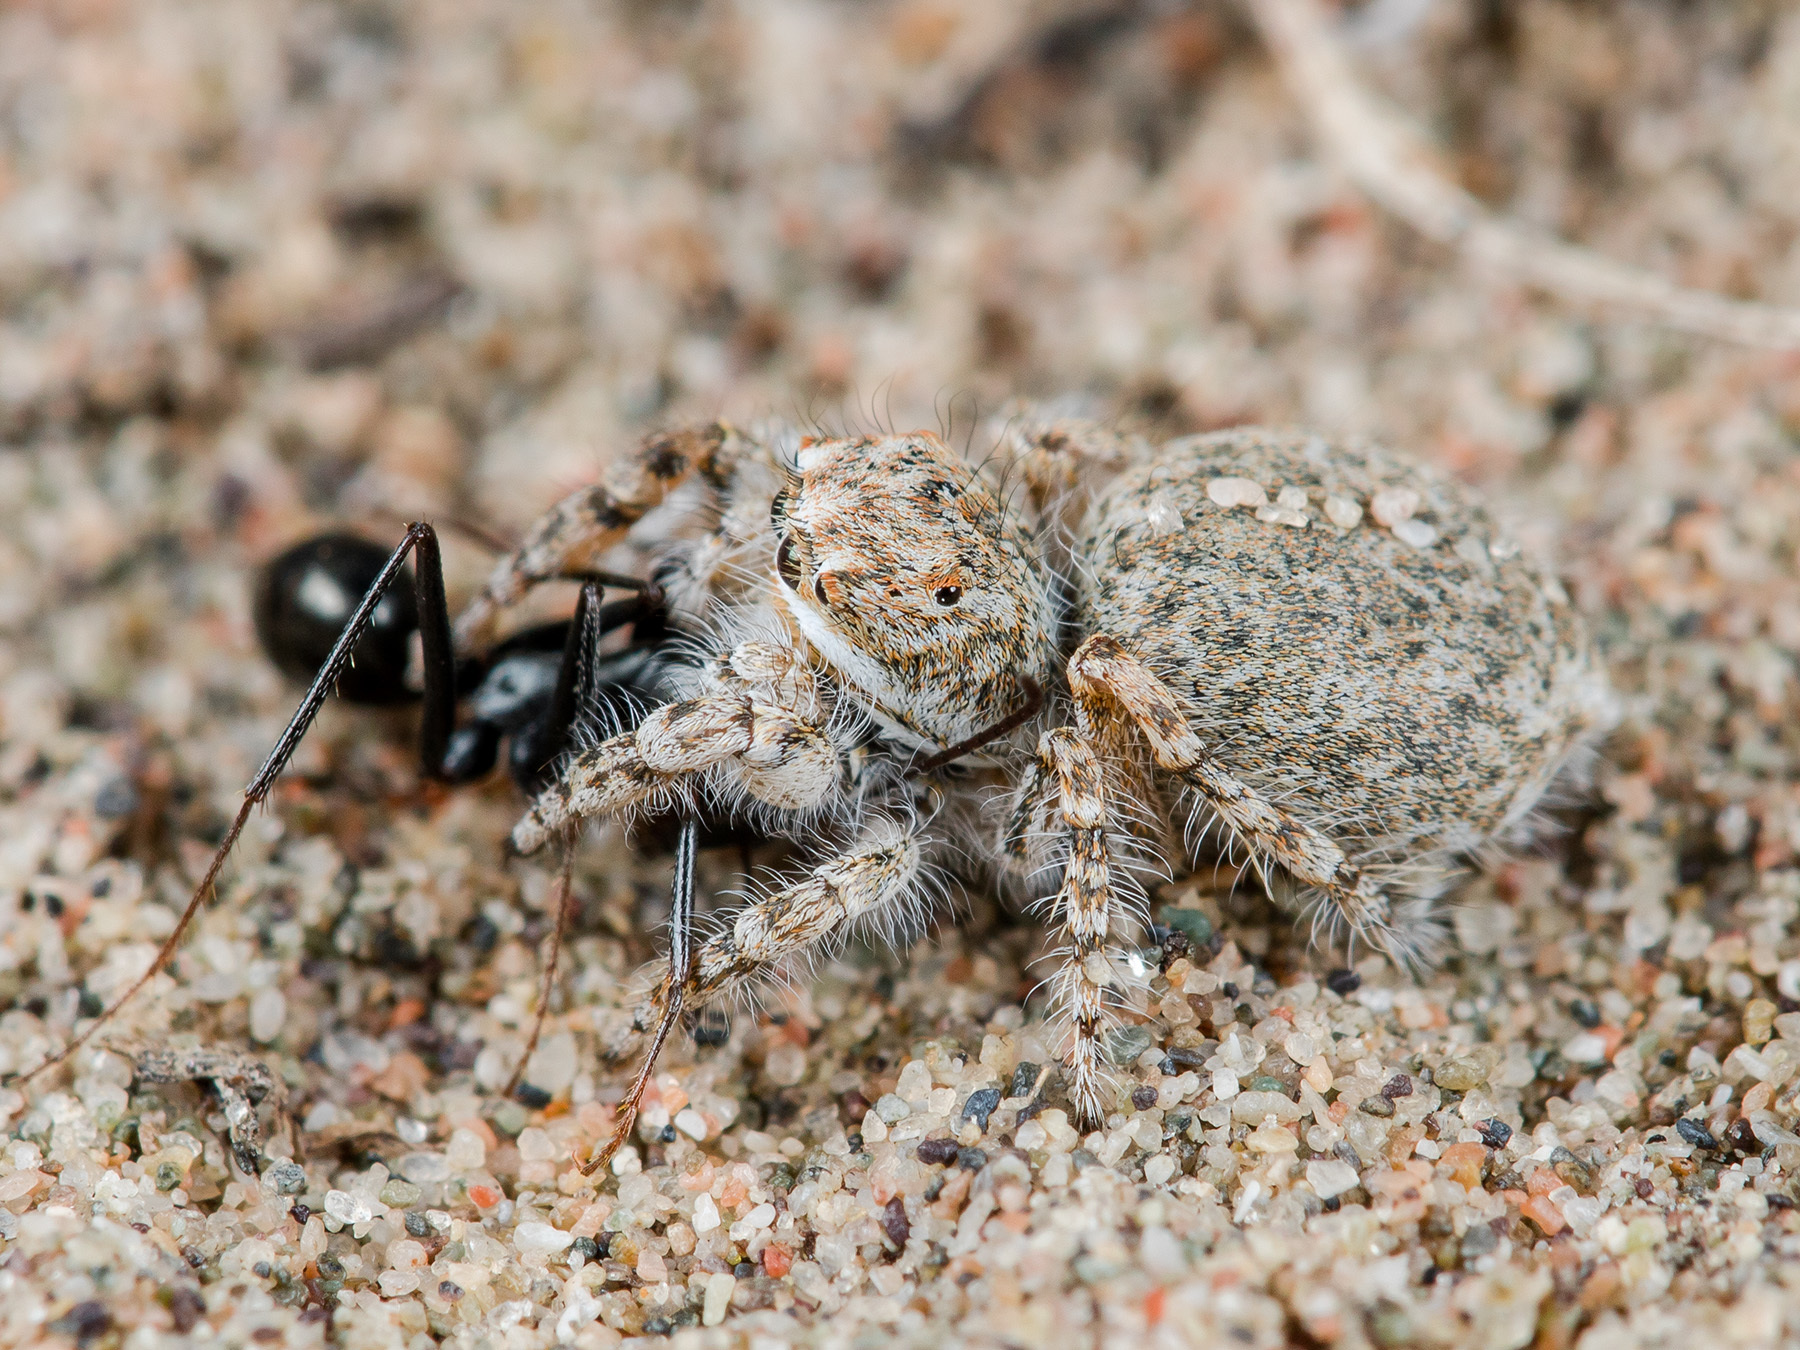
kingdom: Animalia
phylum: Arthropoda
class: Arachnida
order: Araneae
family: Salticidae
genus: Yllenus
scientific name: Yllenus uiguricus
